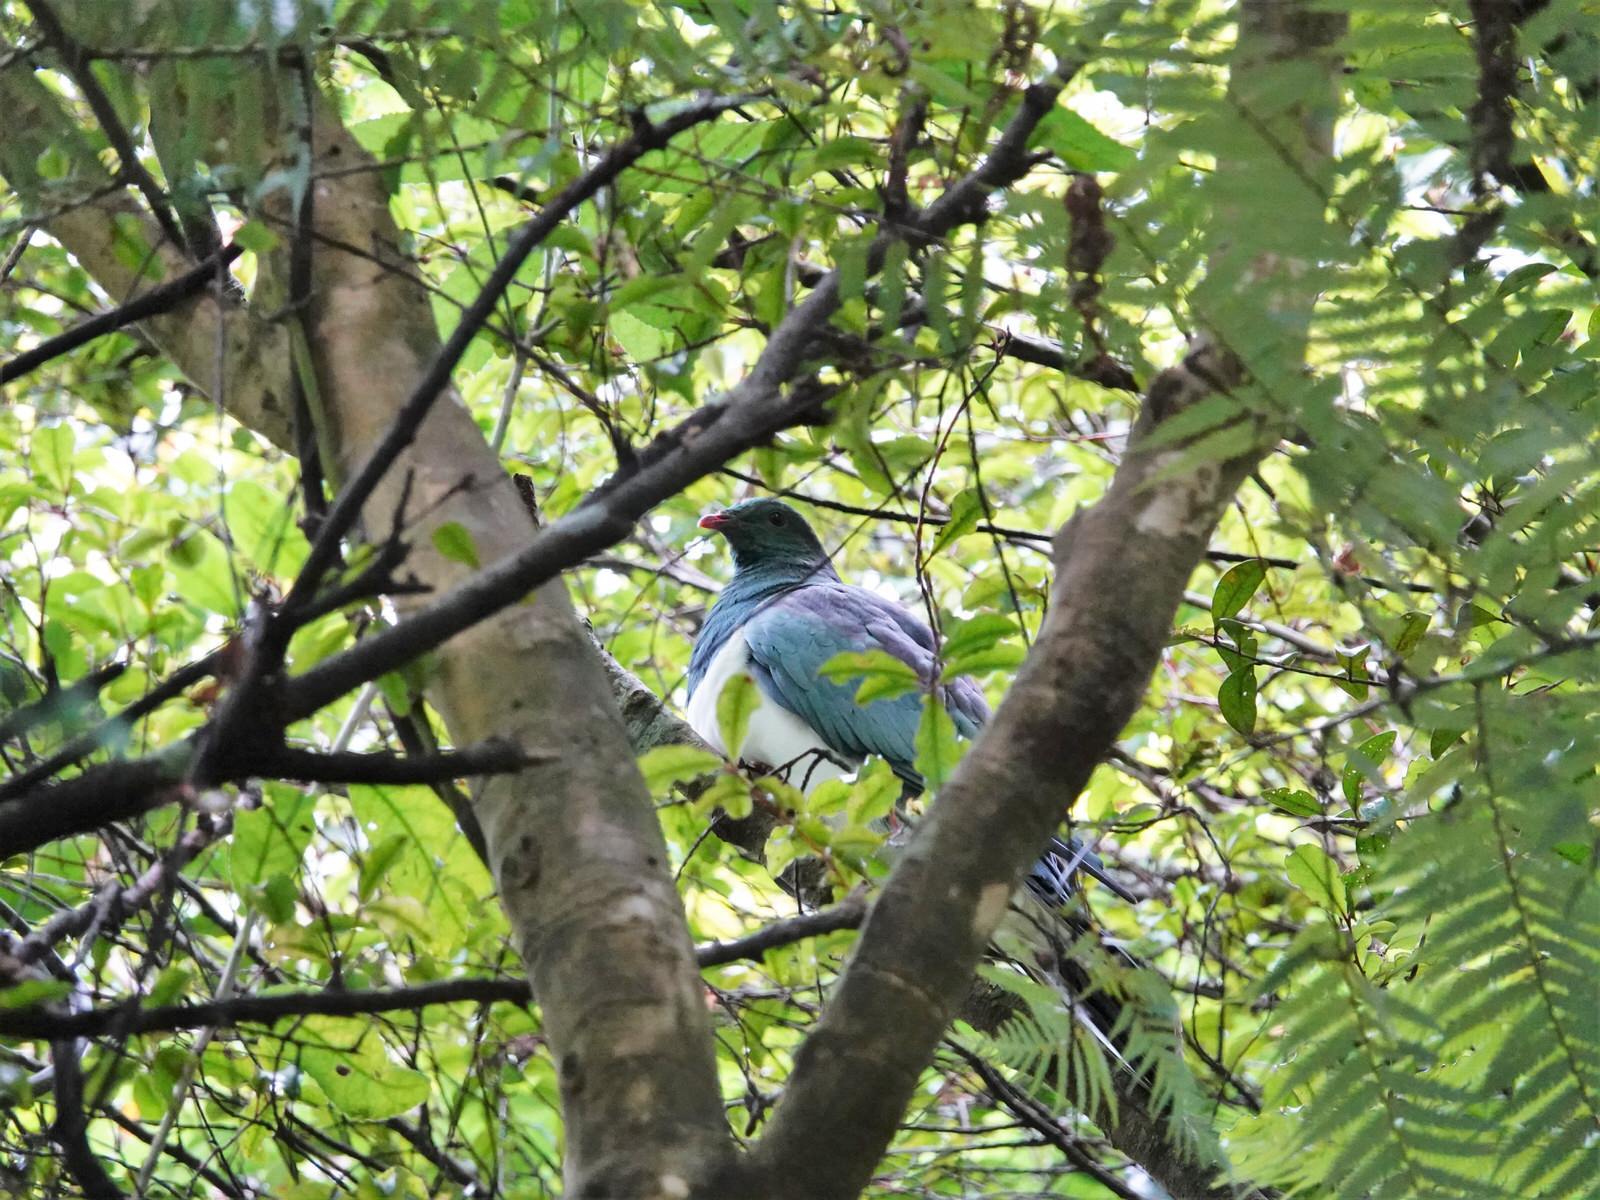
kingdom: Animalia
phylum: Chordata
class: Aves
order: Columbiformes
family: Columbidae
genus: Hemiphaga
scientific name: Hemiphaga novaeseelandiae
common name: New zealand pigeon
